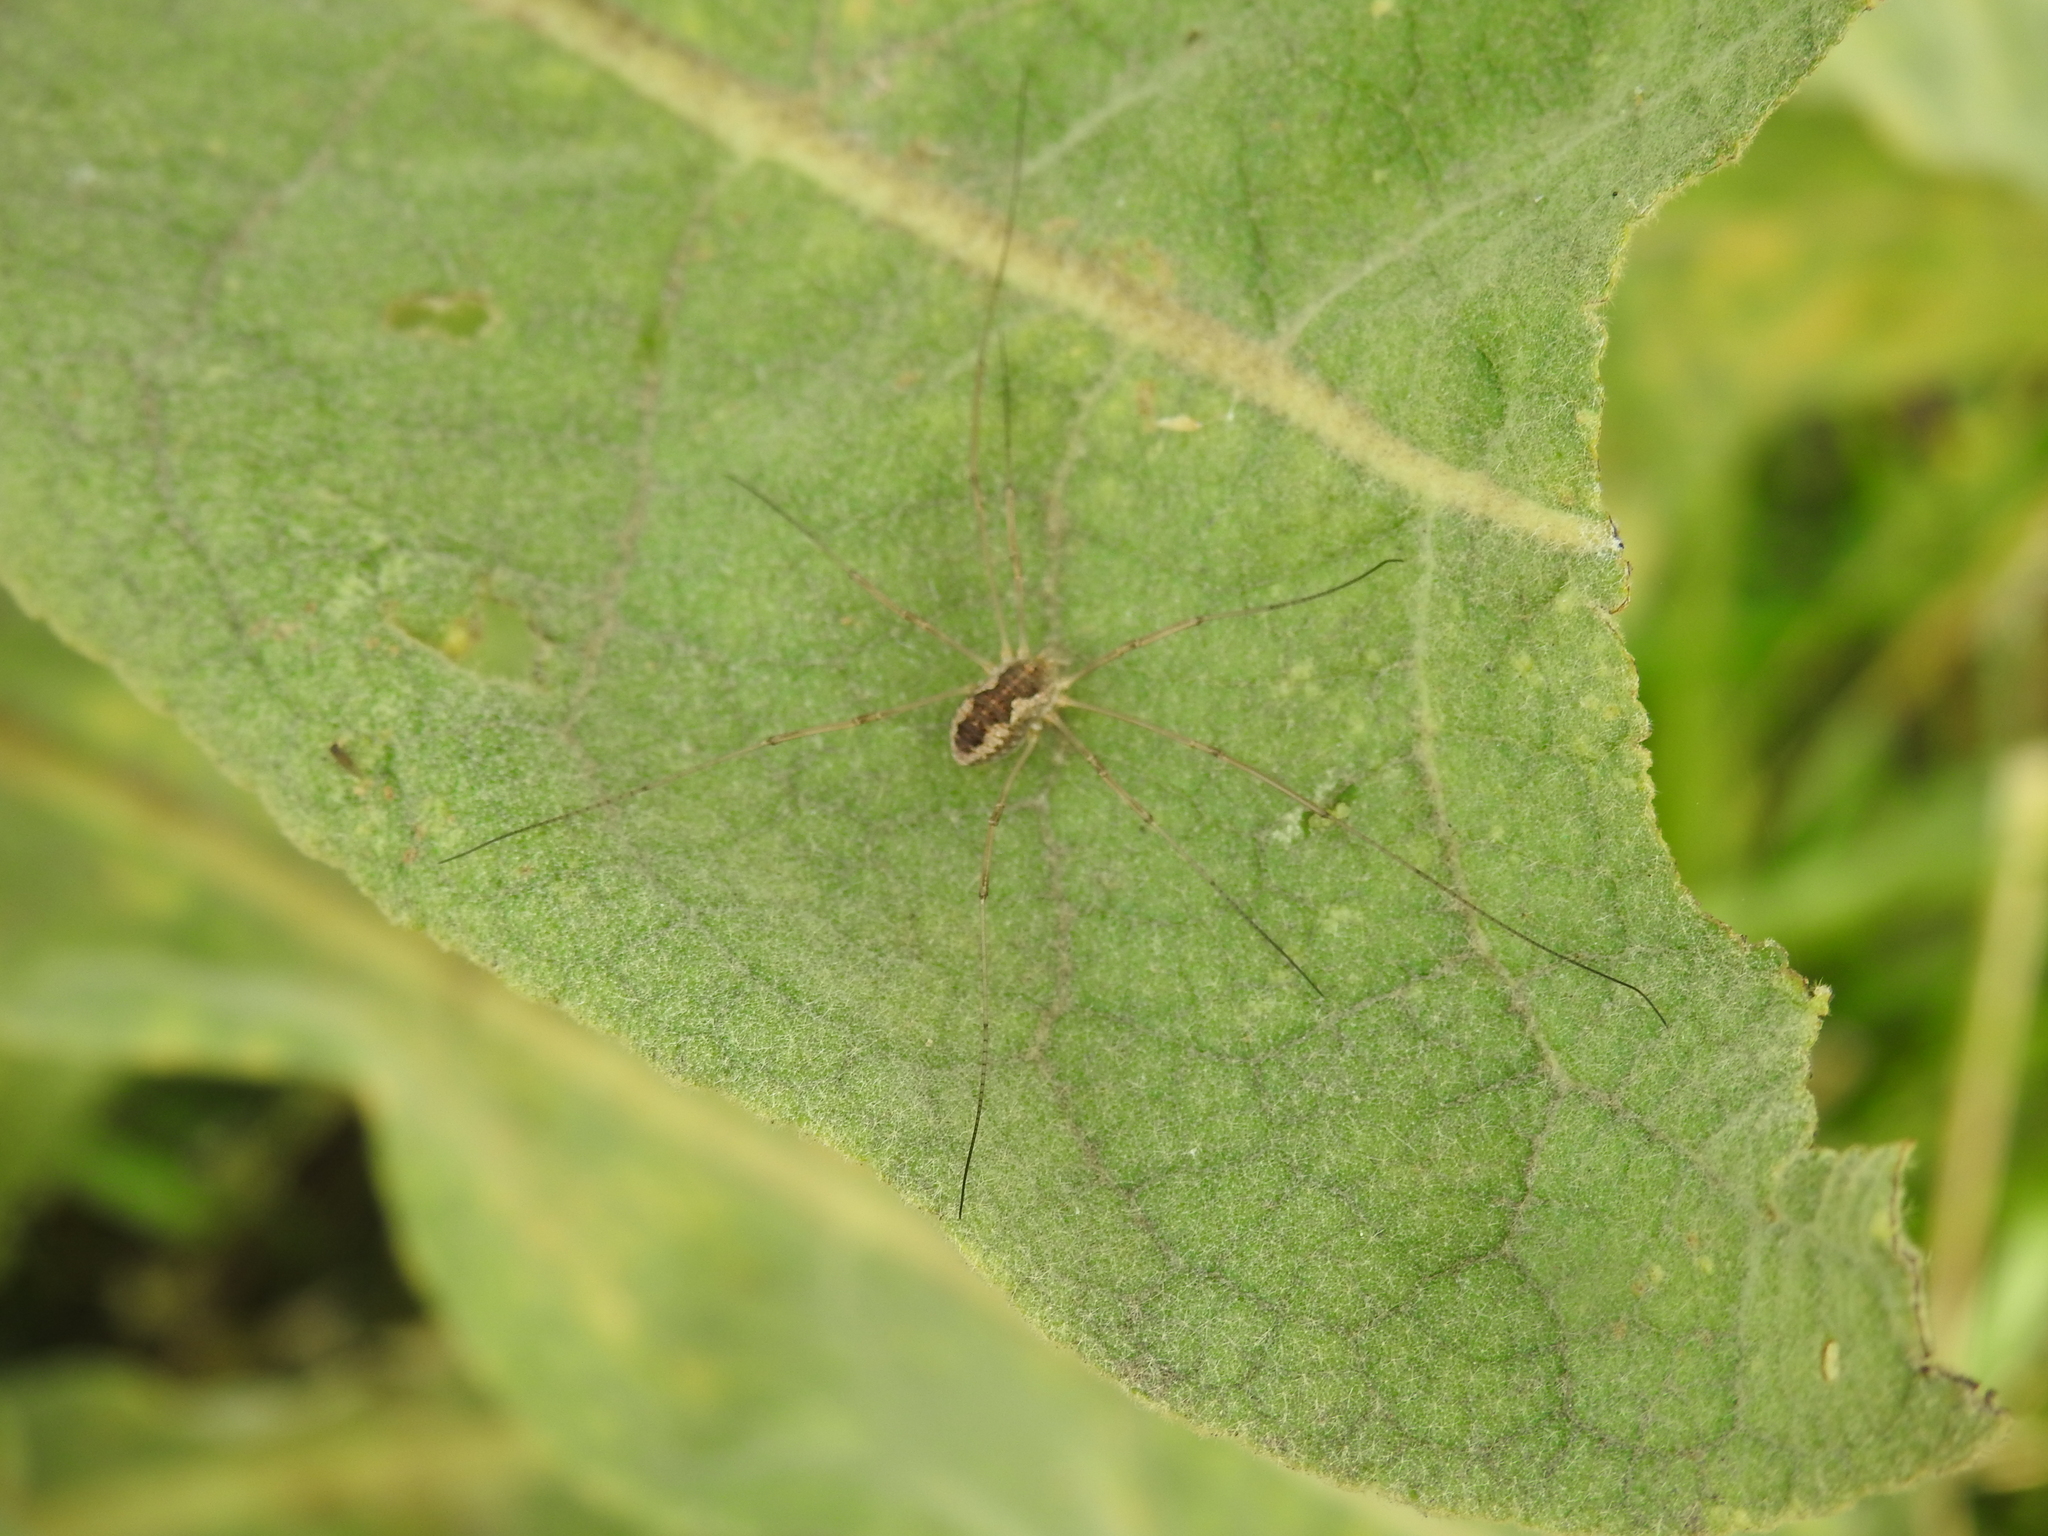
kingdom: Animalia
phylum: Arthropoda
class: Arachnida
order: Opiliones
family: Phalangiidae
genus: Phalangium
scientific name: Phalangium opilio
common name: Daddy longleg
